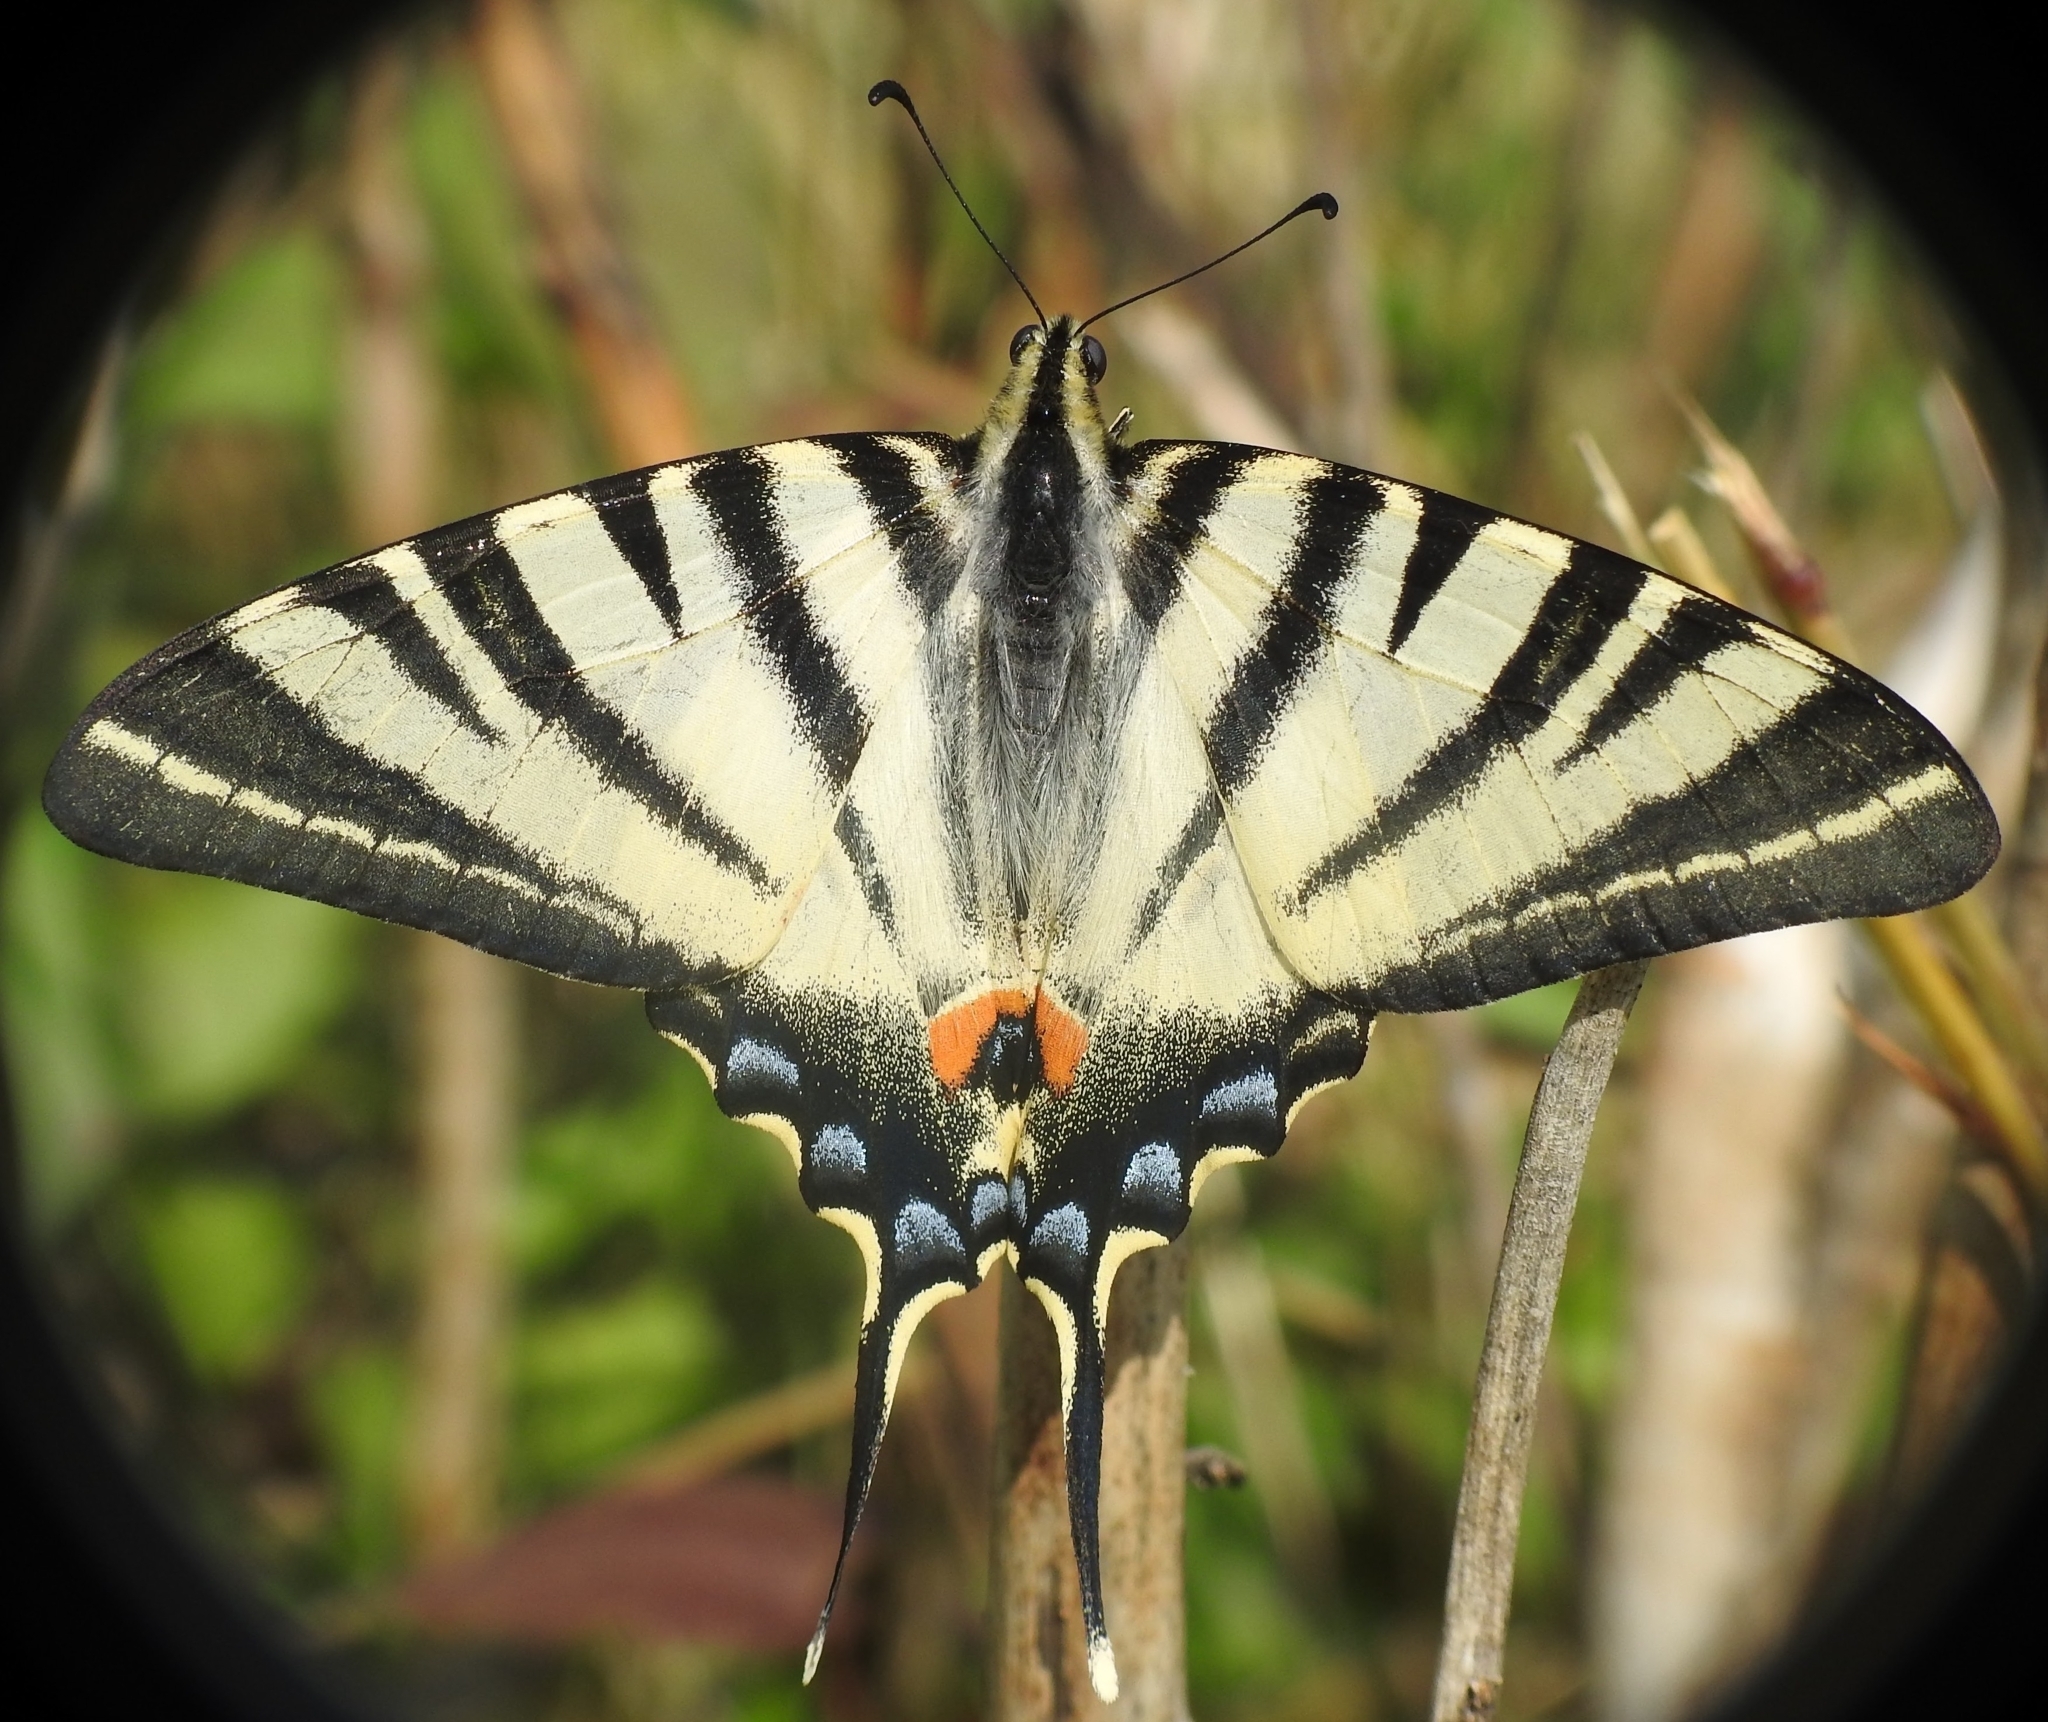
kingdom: Animalia
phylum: Arthropoda
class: Insecta
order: Lepidoptera
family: Papilionidae
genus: Iphiclides
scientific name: Iphiclides podalirius
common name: Scarce swallowtail
